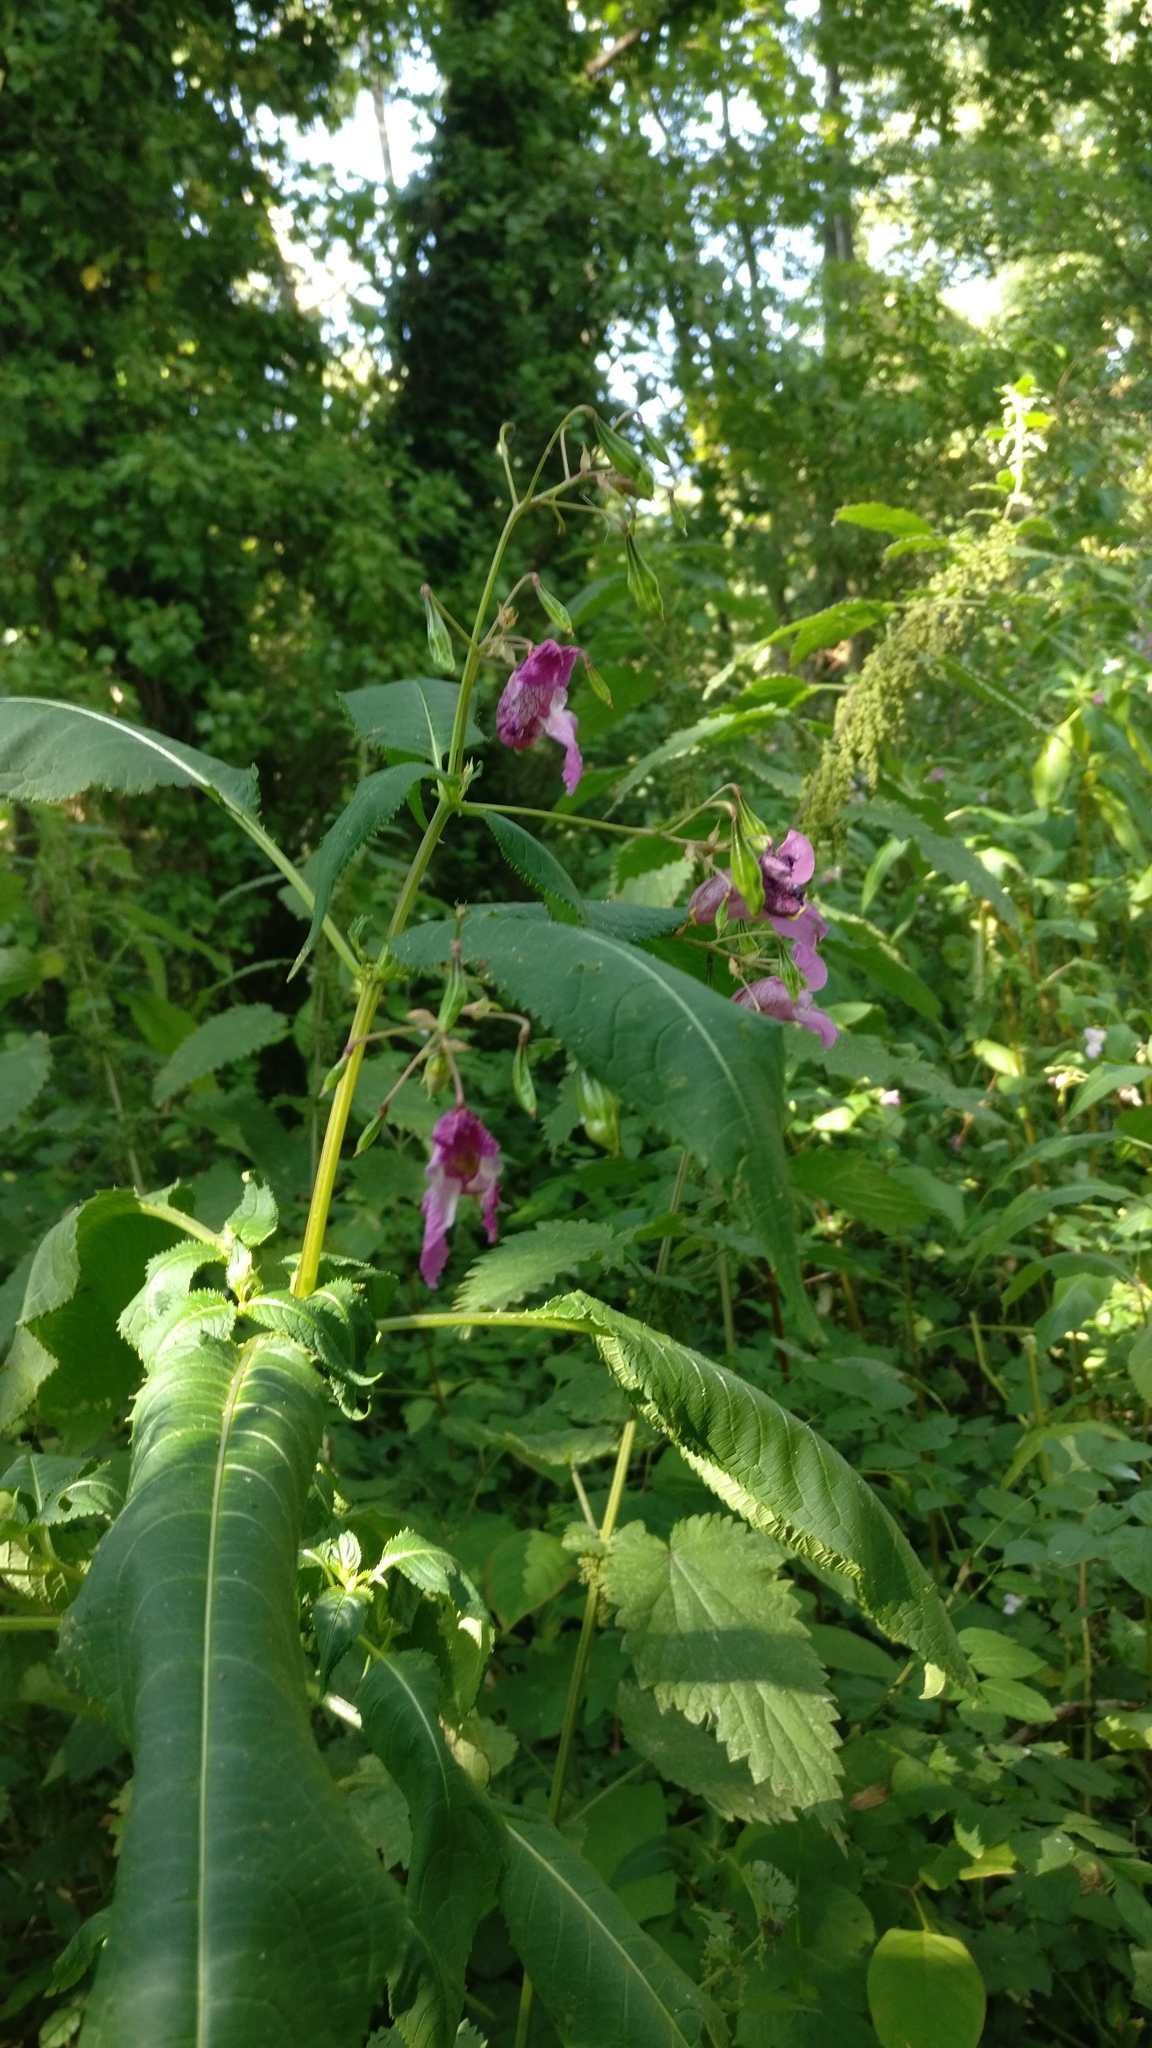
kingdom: Plantae
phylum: Tracheophyta
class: Magnoliopsida
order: Ericales
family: Balsaminaceae
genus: Impatiens
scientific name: Impatiens glandulifera
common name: Himalayan balsam
